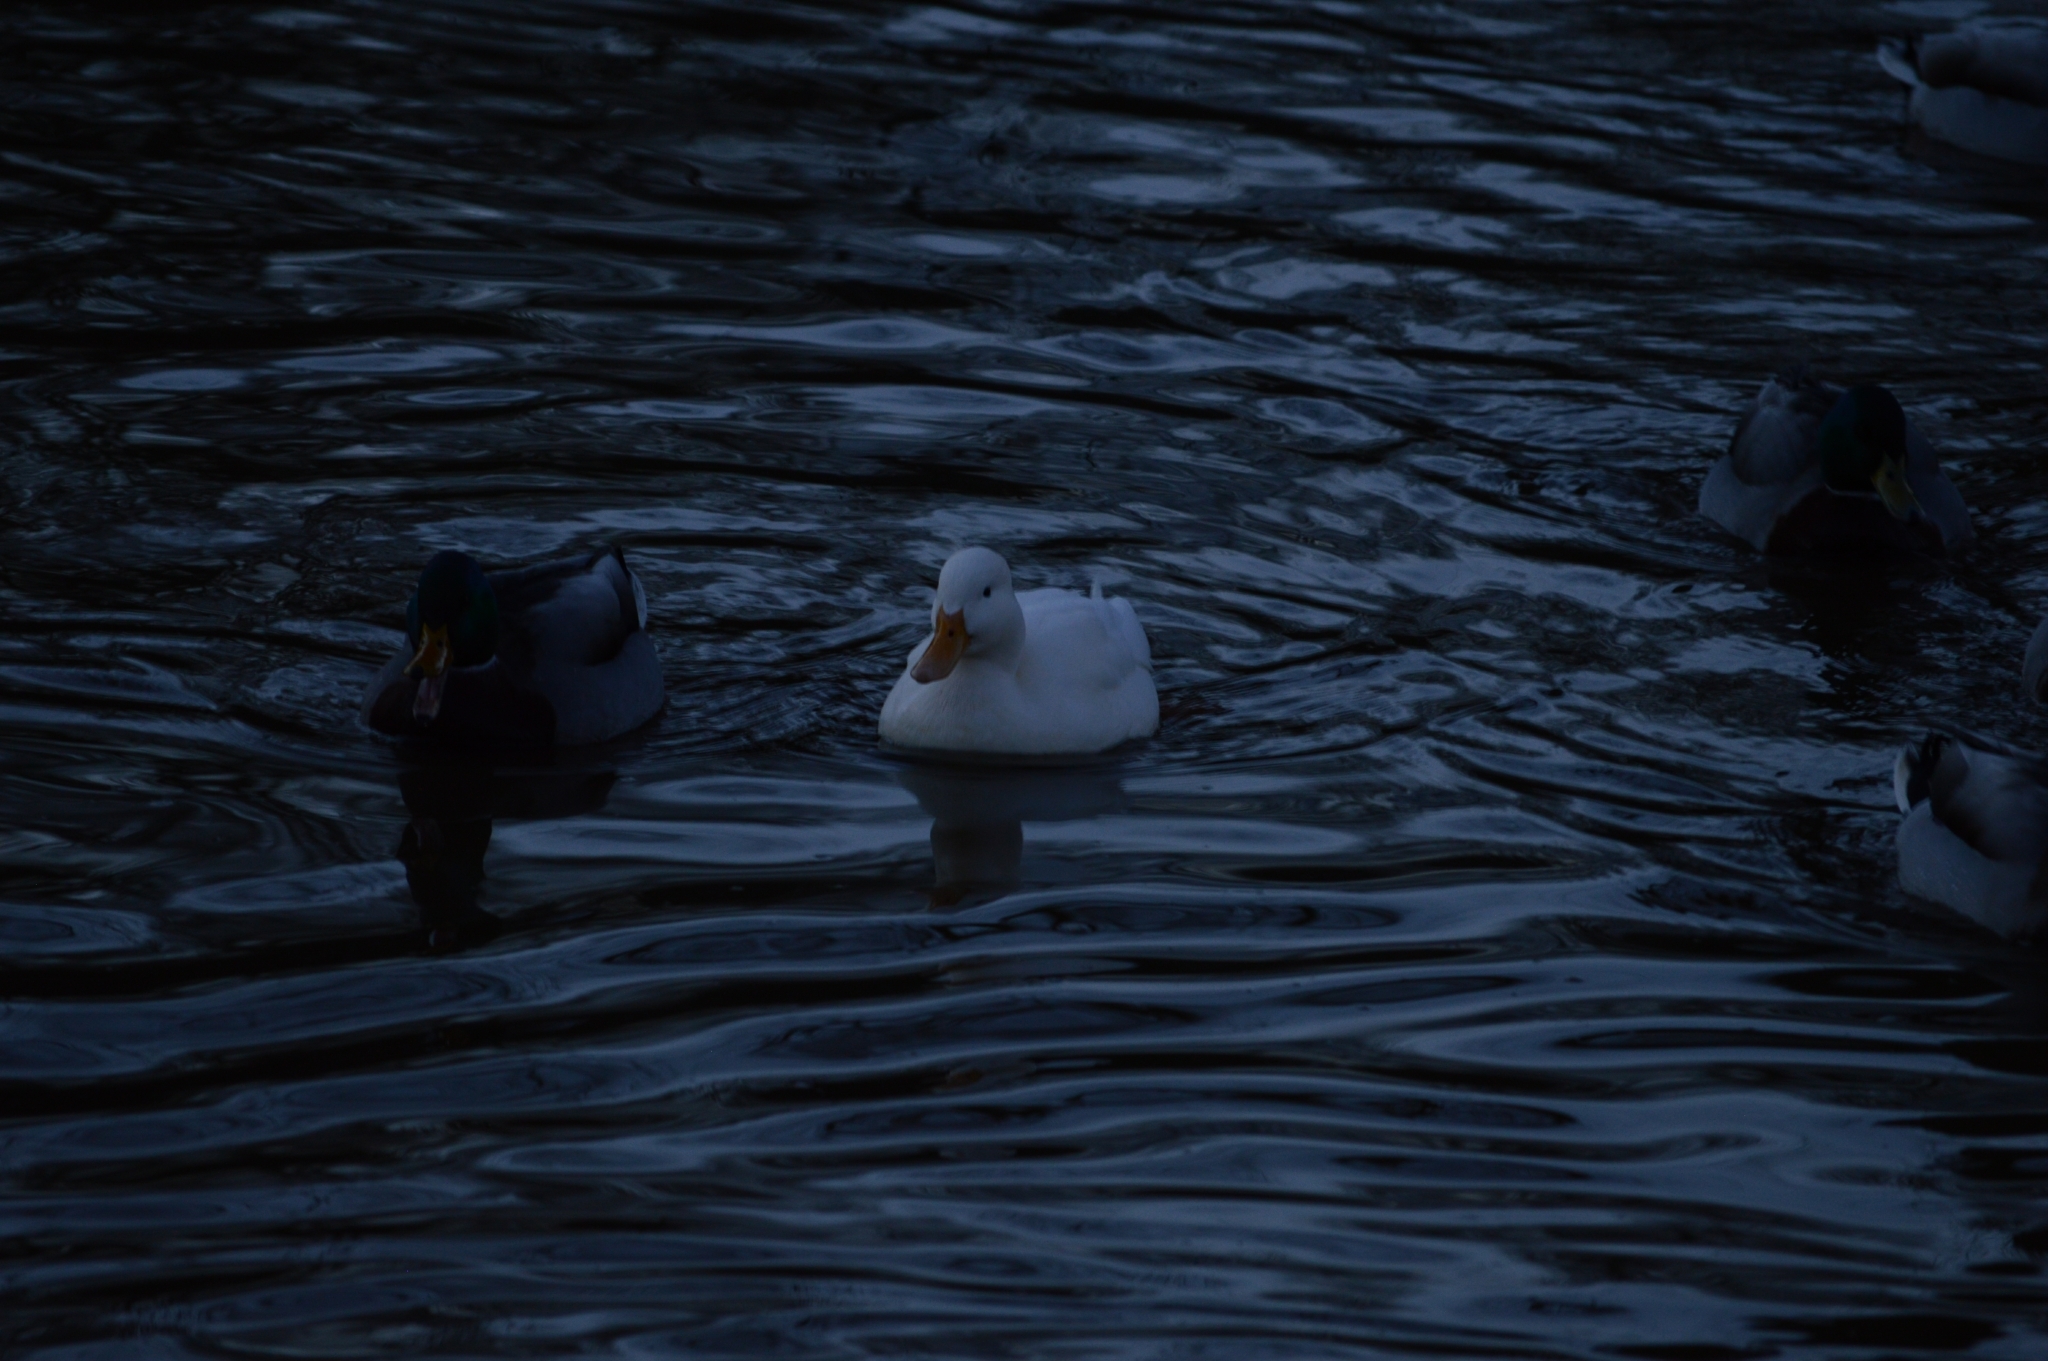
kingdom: Animalia
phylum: Chordata
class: Aves
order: Anseriformes
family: Anatidae
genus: Anas
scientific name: Anas platyrhynchos
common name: Mallard
